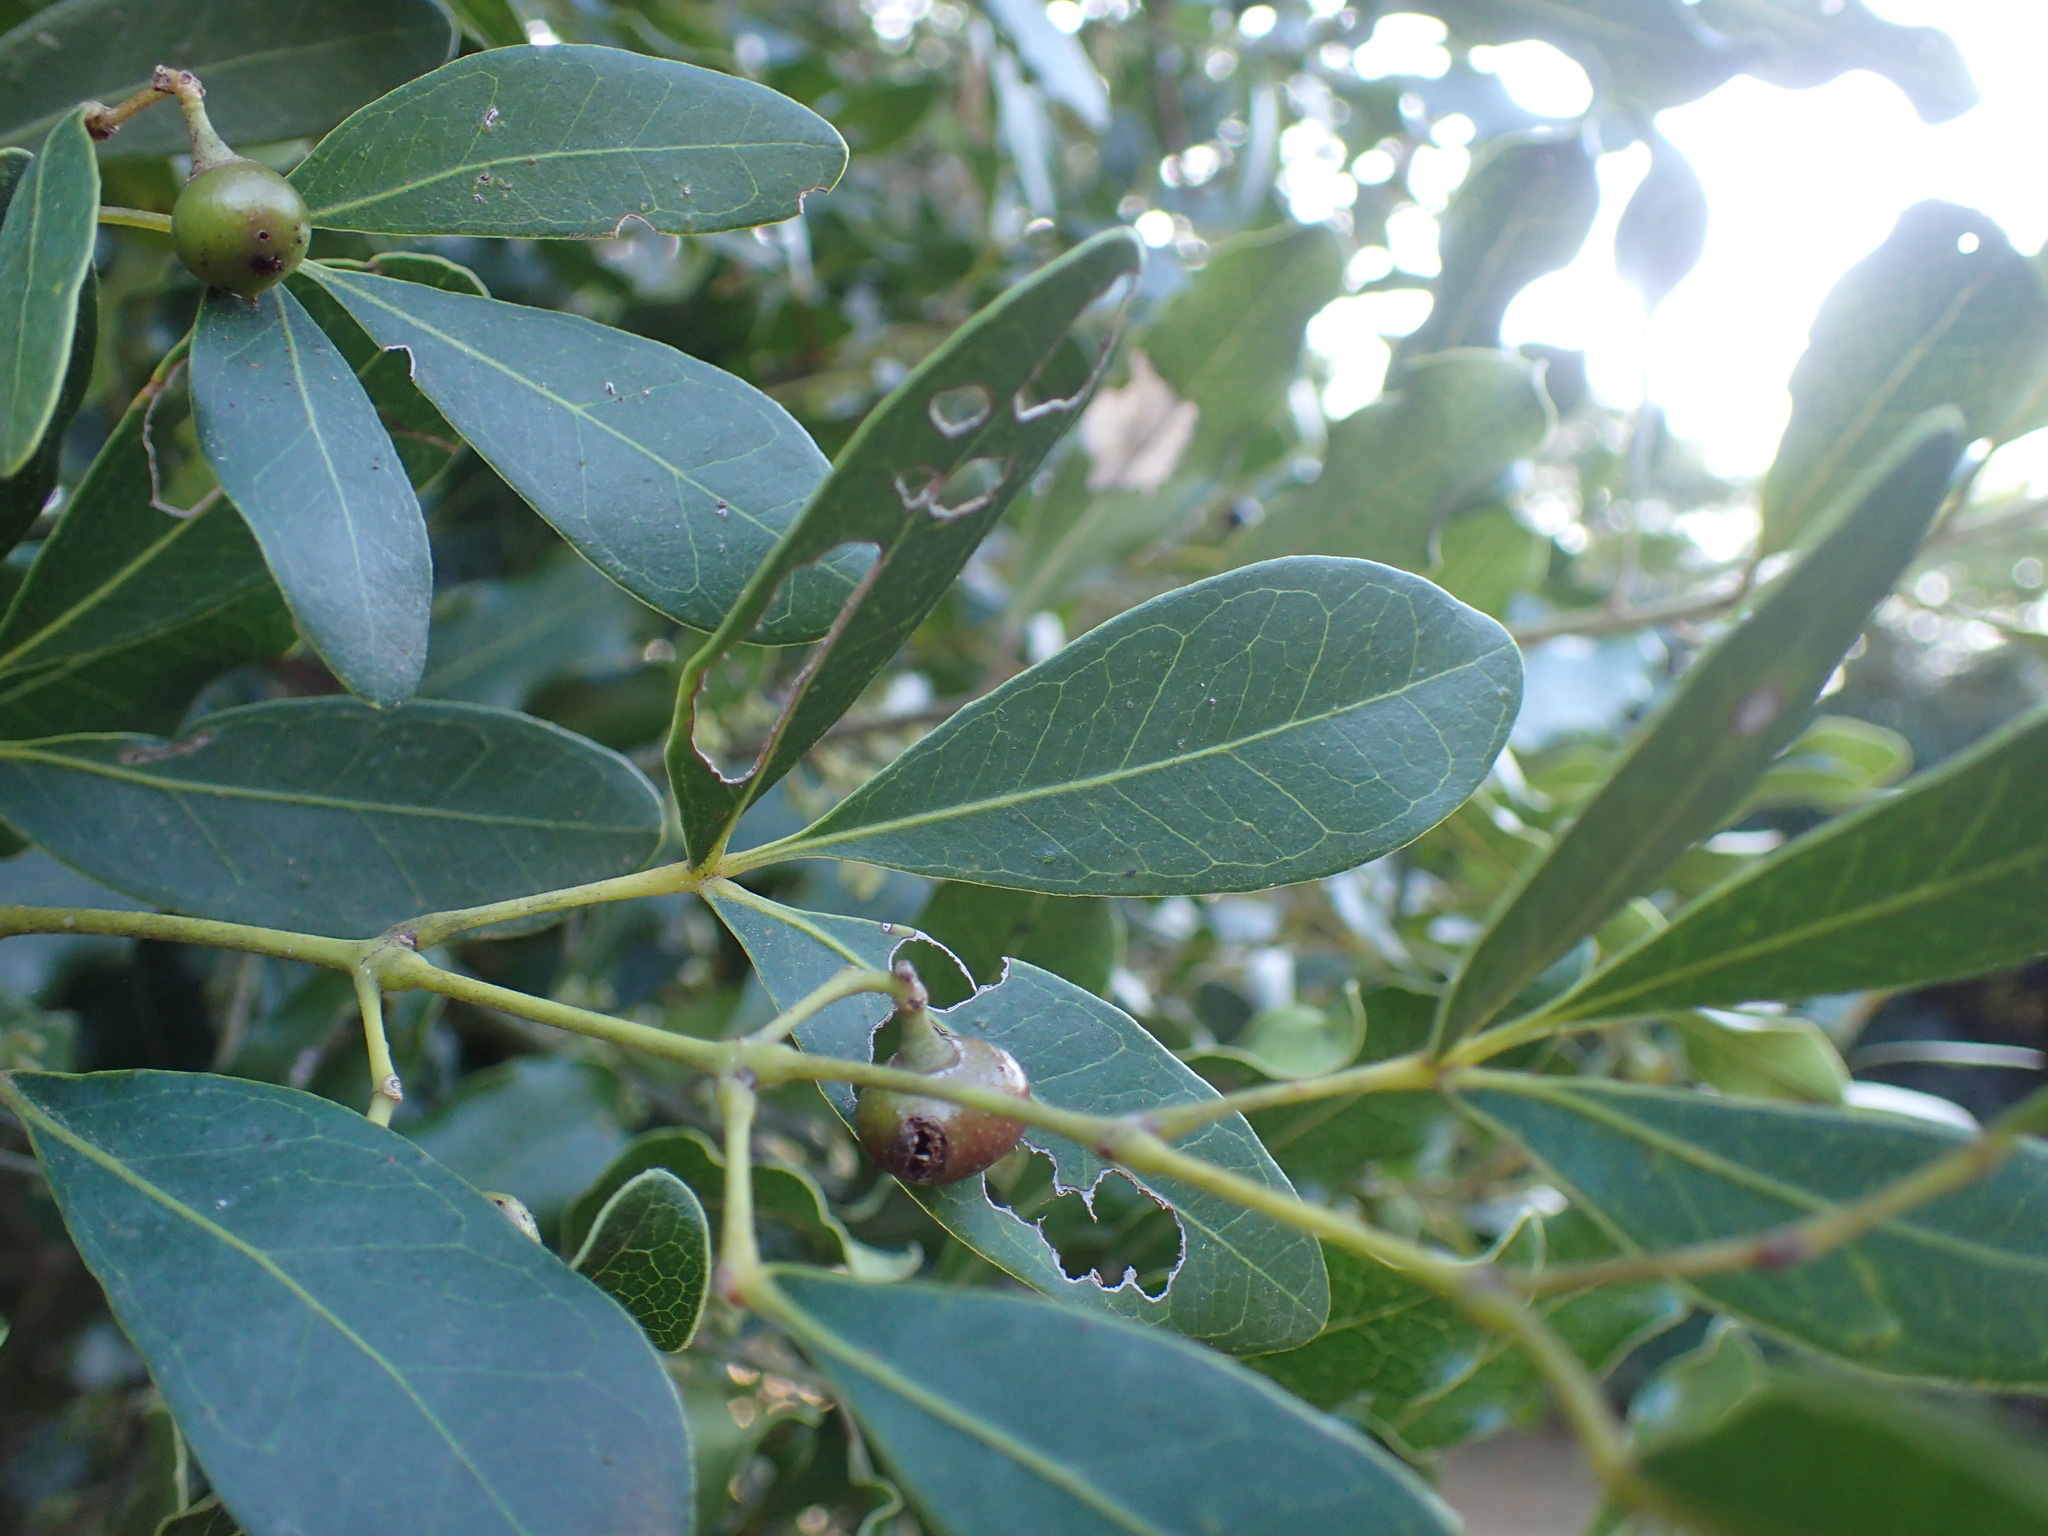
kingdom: Plantae
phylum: Tracheophyta
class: Magnoliopsida
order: Vitales
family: Vitaceae
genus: Rhoicissus
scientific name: Rhoicissus digitata
